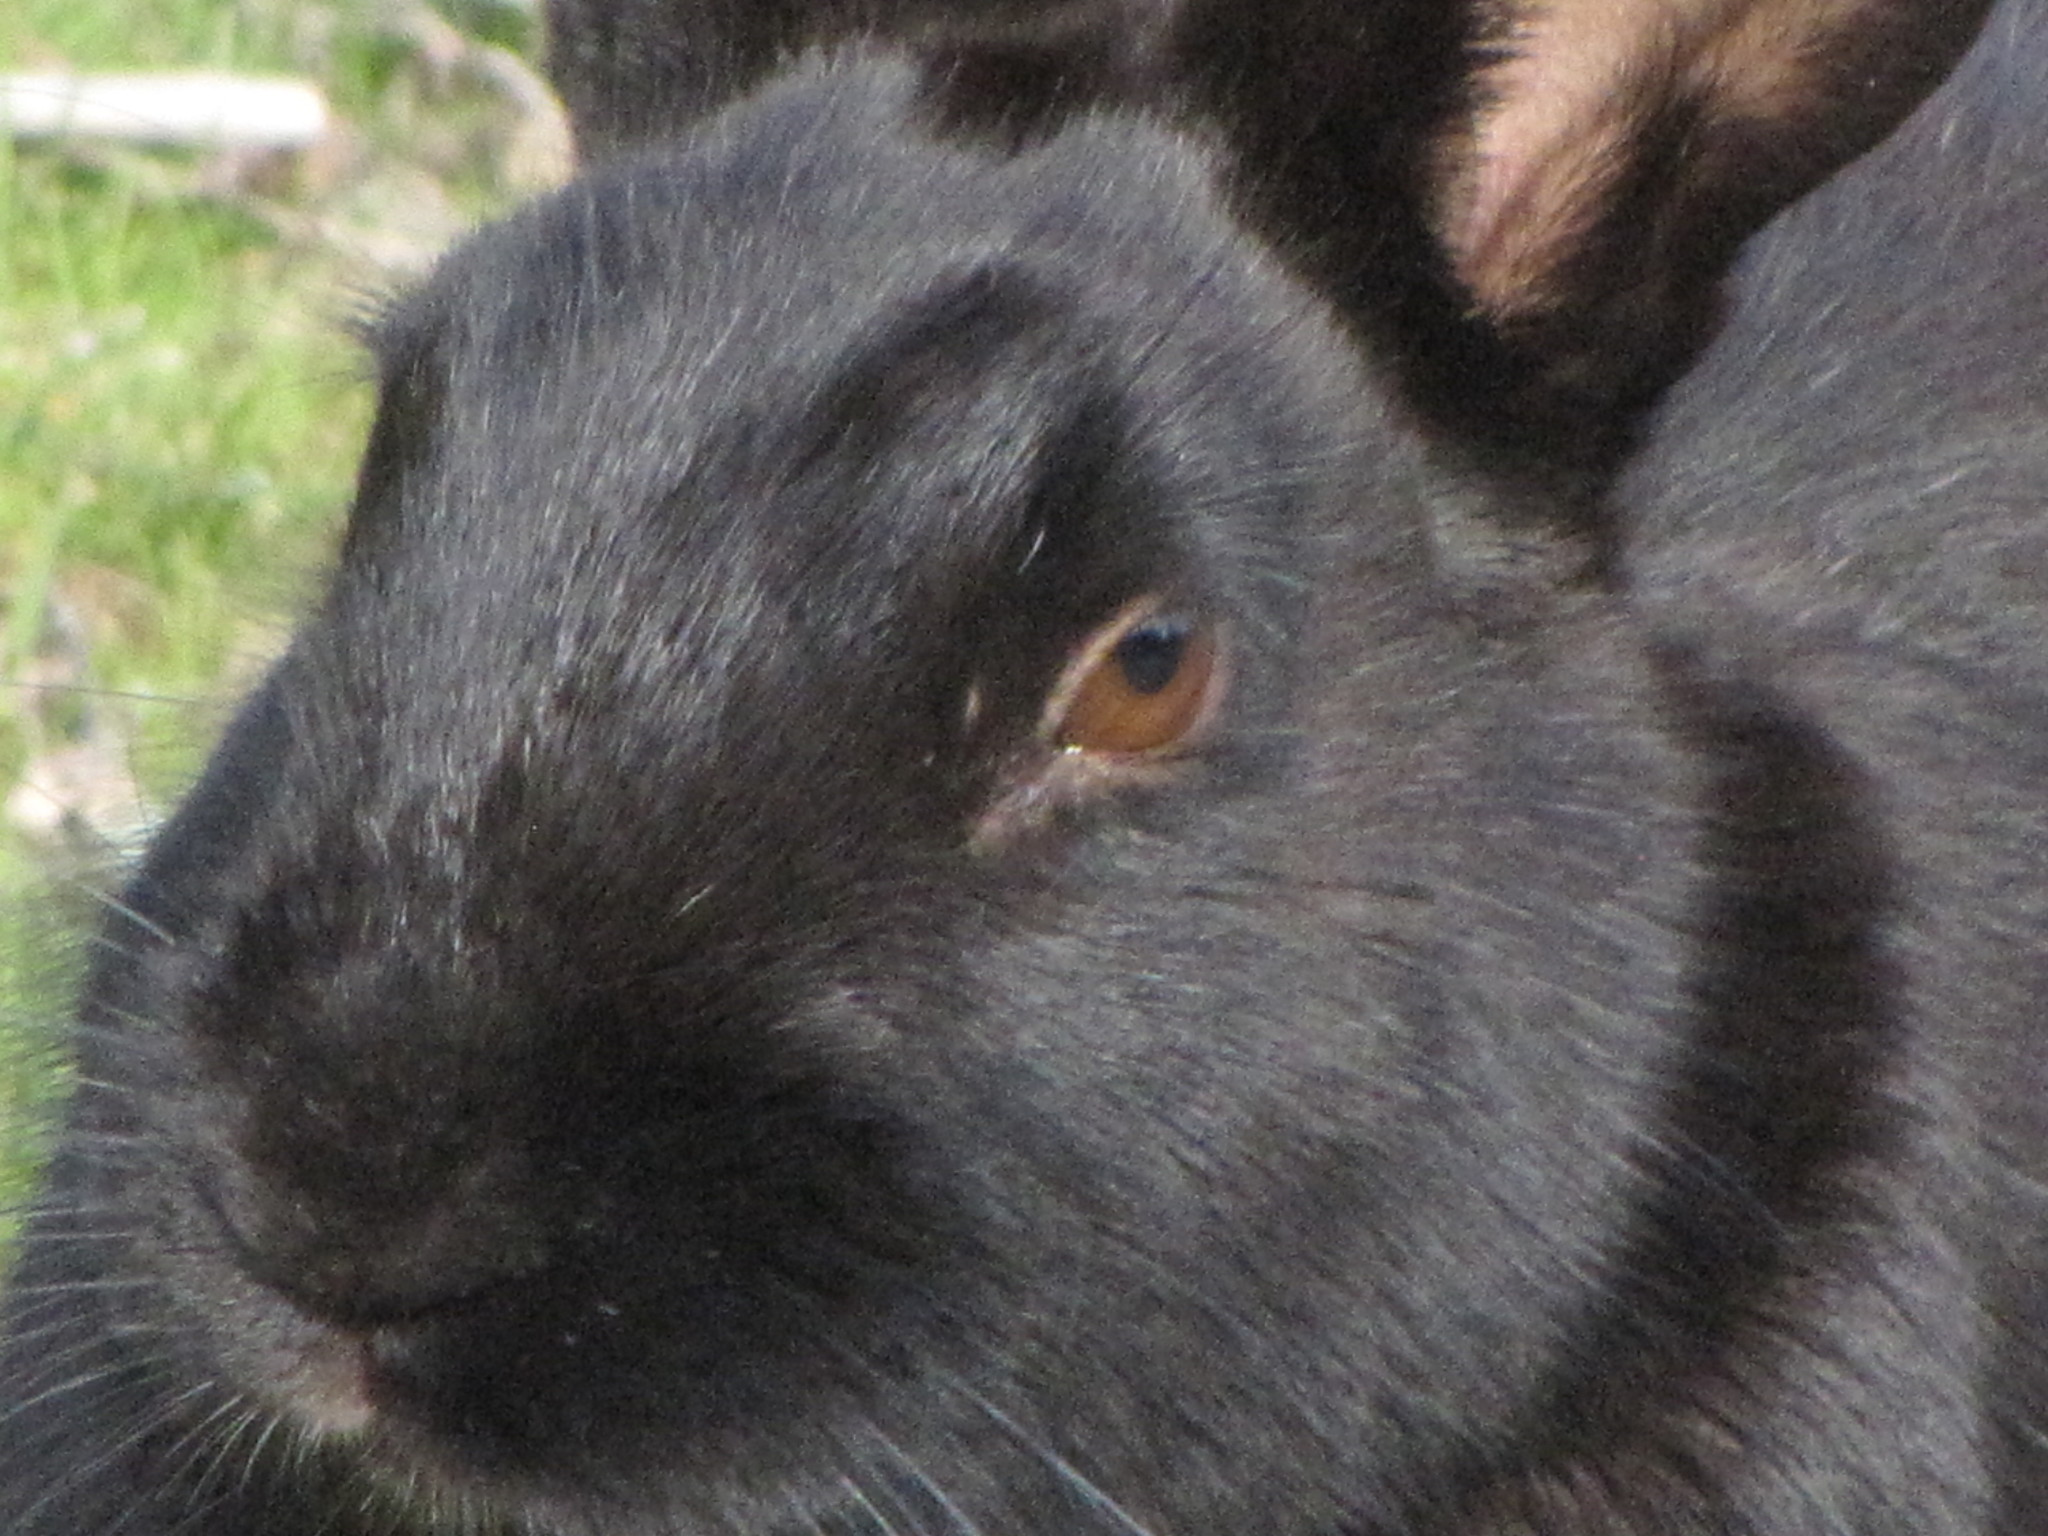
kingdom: Animalia
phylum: Chordata
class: Mammalia
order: Lagomorpha
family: Leporidae
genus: Oryctolagus
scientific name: Oryctolagus cuniculus
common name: European rabbit
